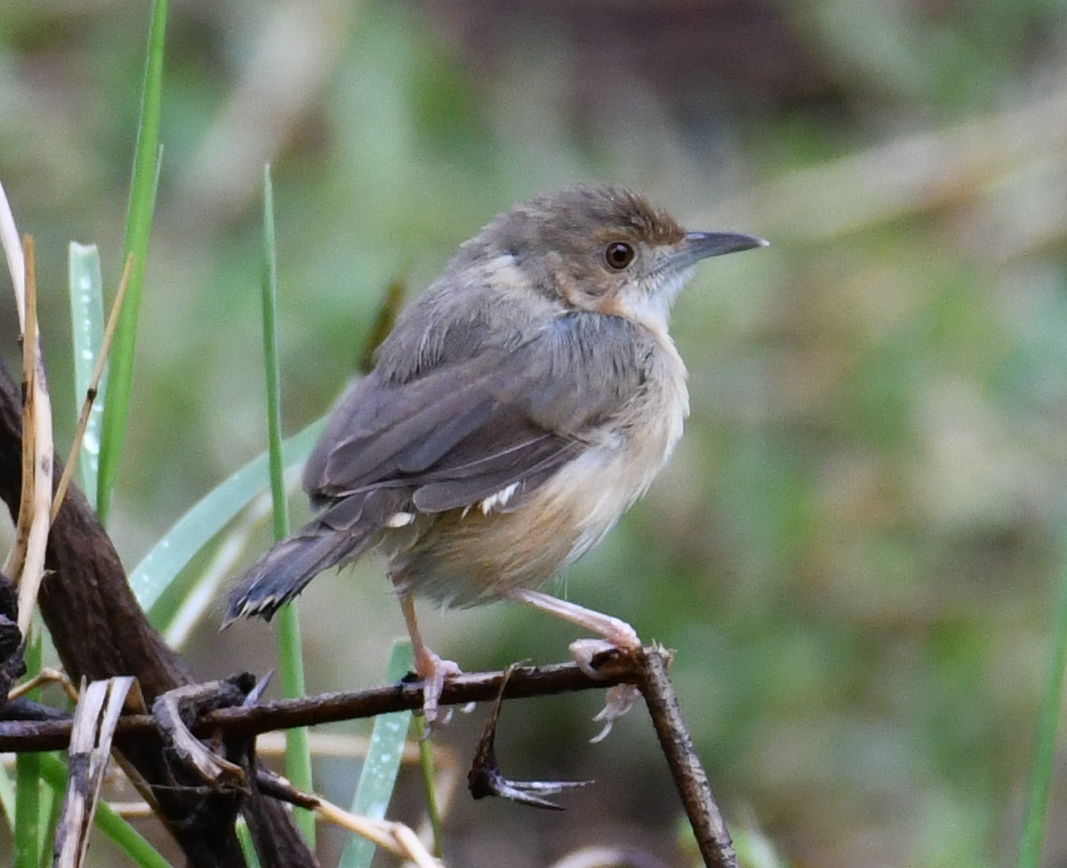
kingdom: Animalia
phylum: Chordata
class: Aves
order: Passeriformes
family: Cisticolidae
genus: Cisticola
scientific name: Cisticola erythrops
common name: Red-faced cisticola
